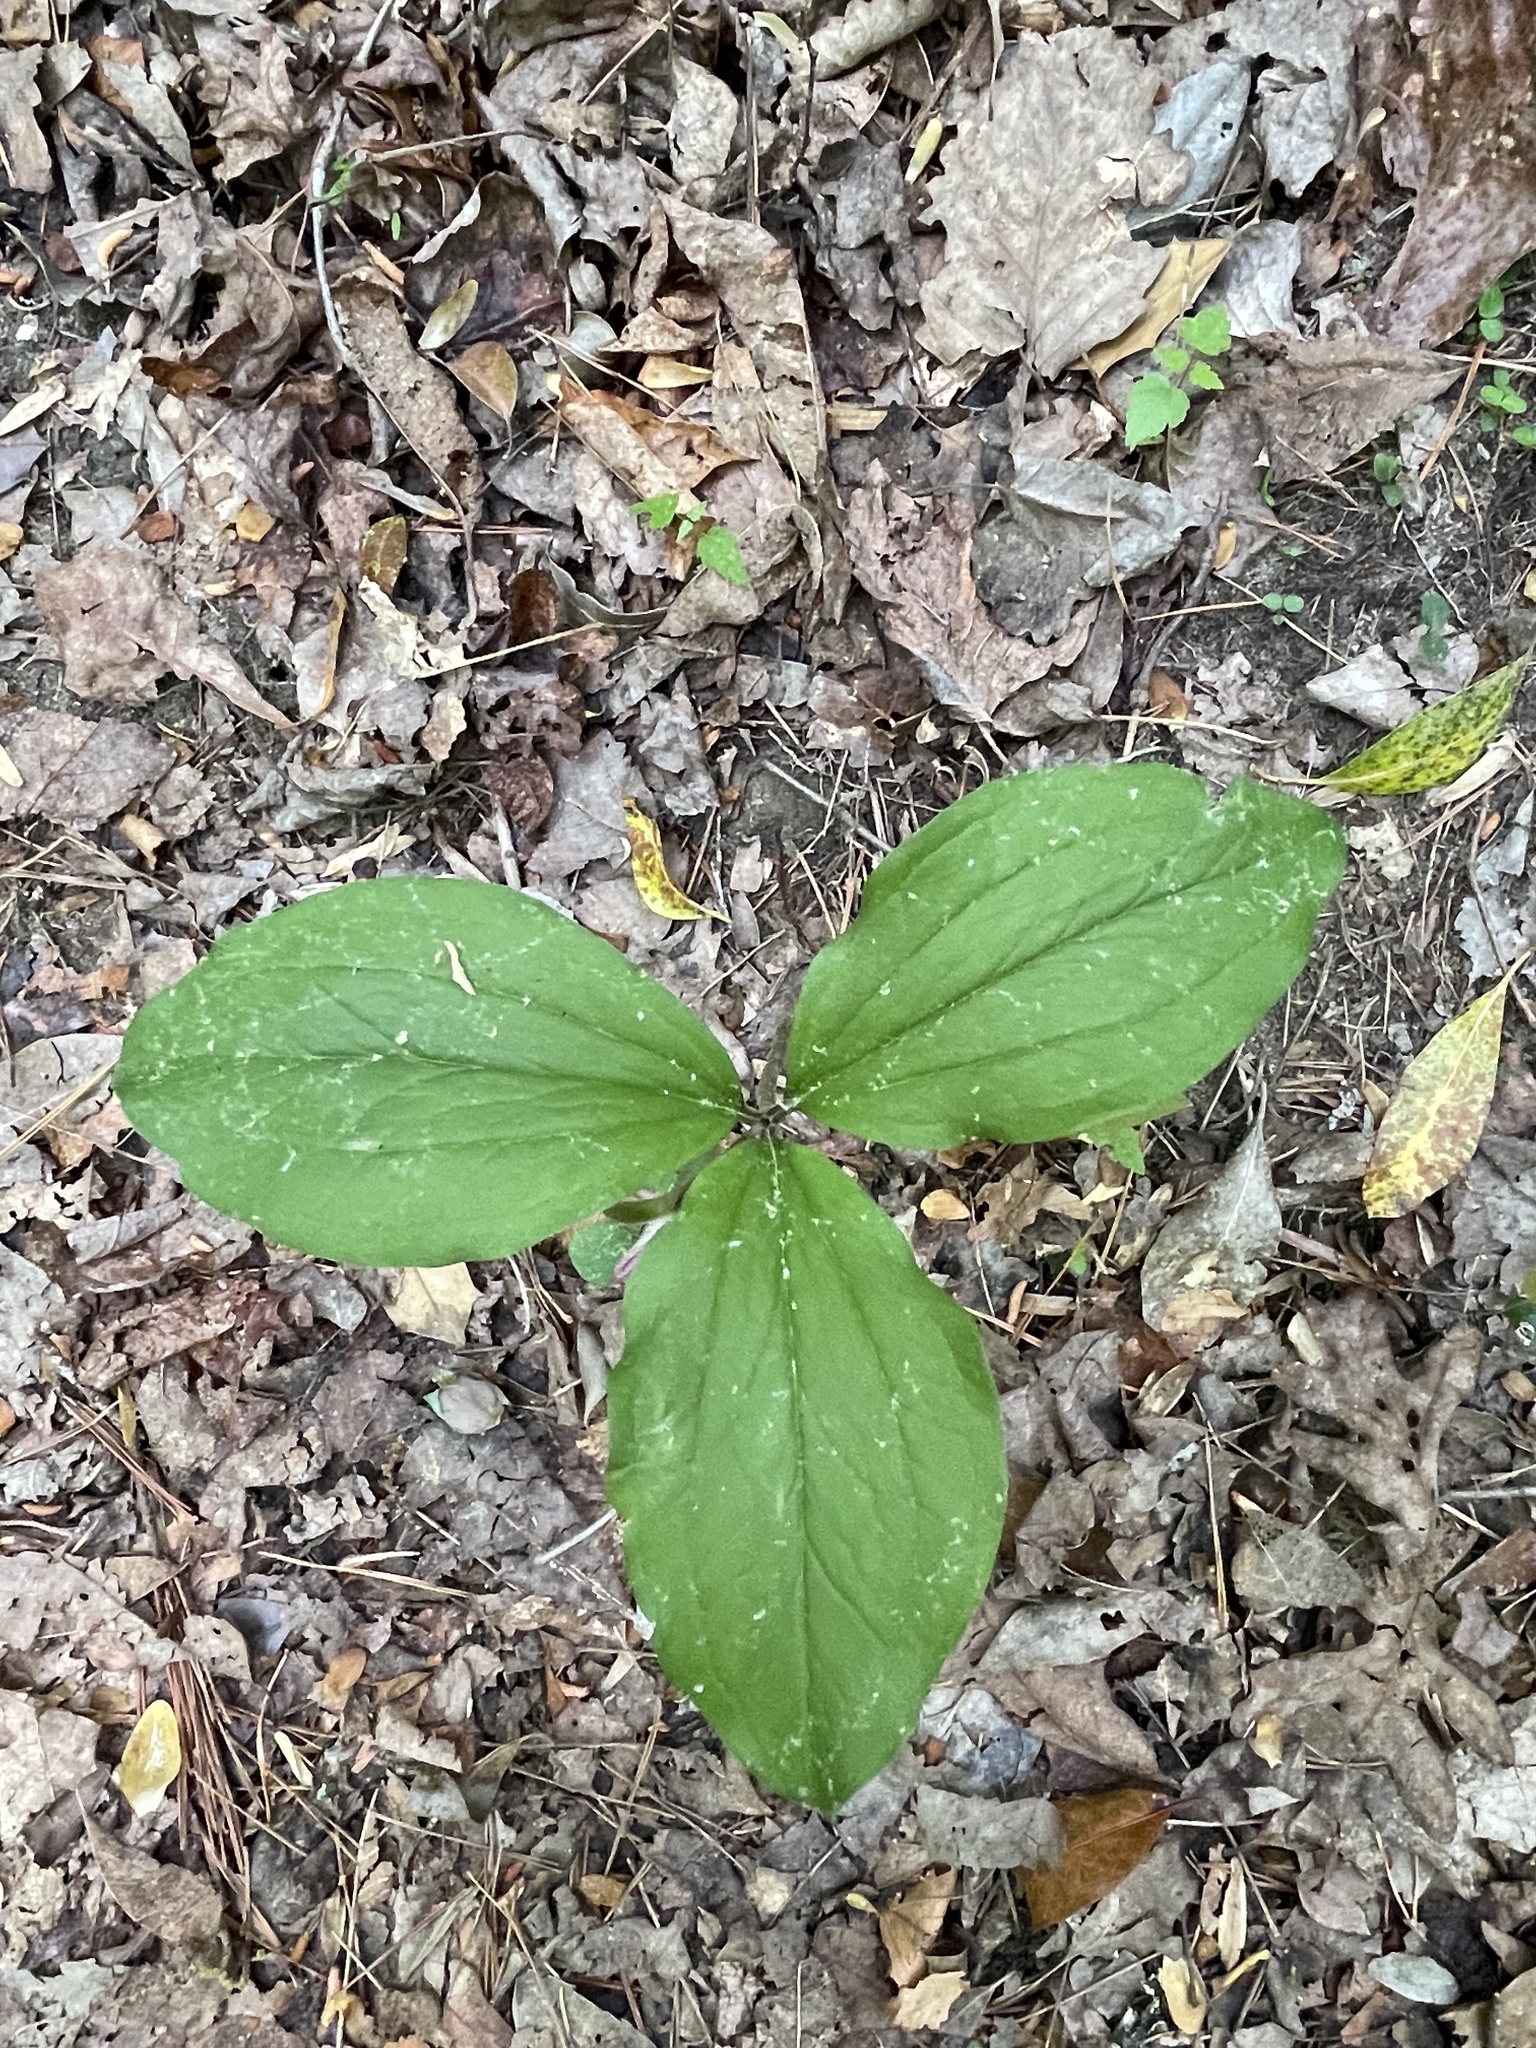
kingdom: Plantae
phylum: Tracheophyta
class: Liliopsida
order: Liliales
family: Melanthiaceae
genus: Trillium
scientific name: Trillium catesbaei
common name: Bashful trillium
